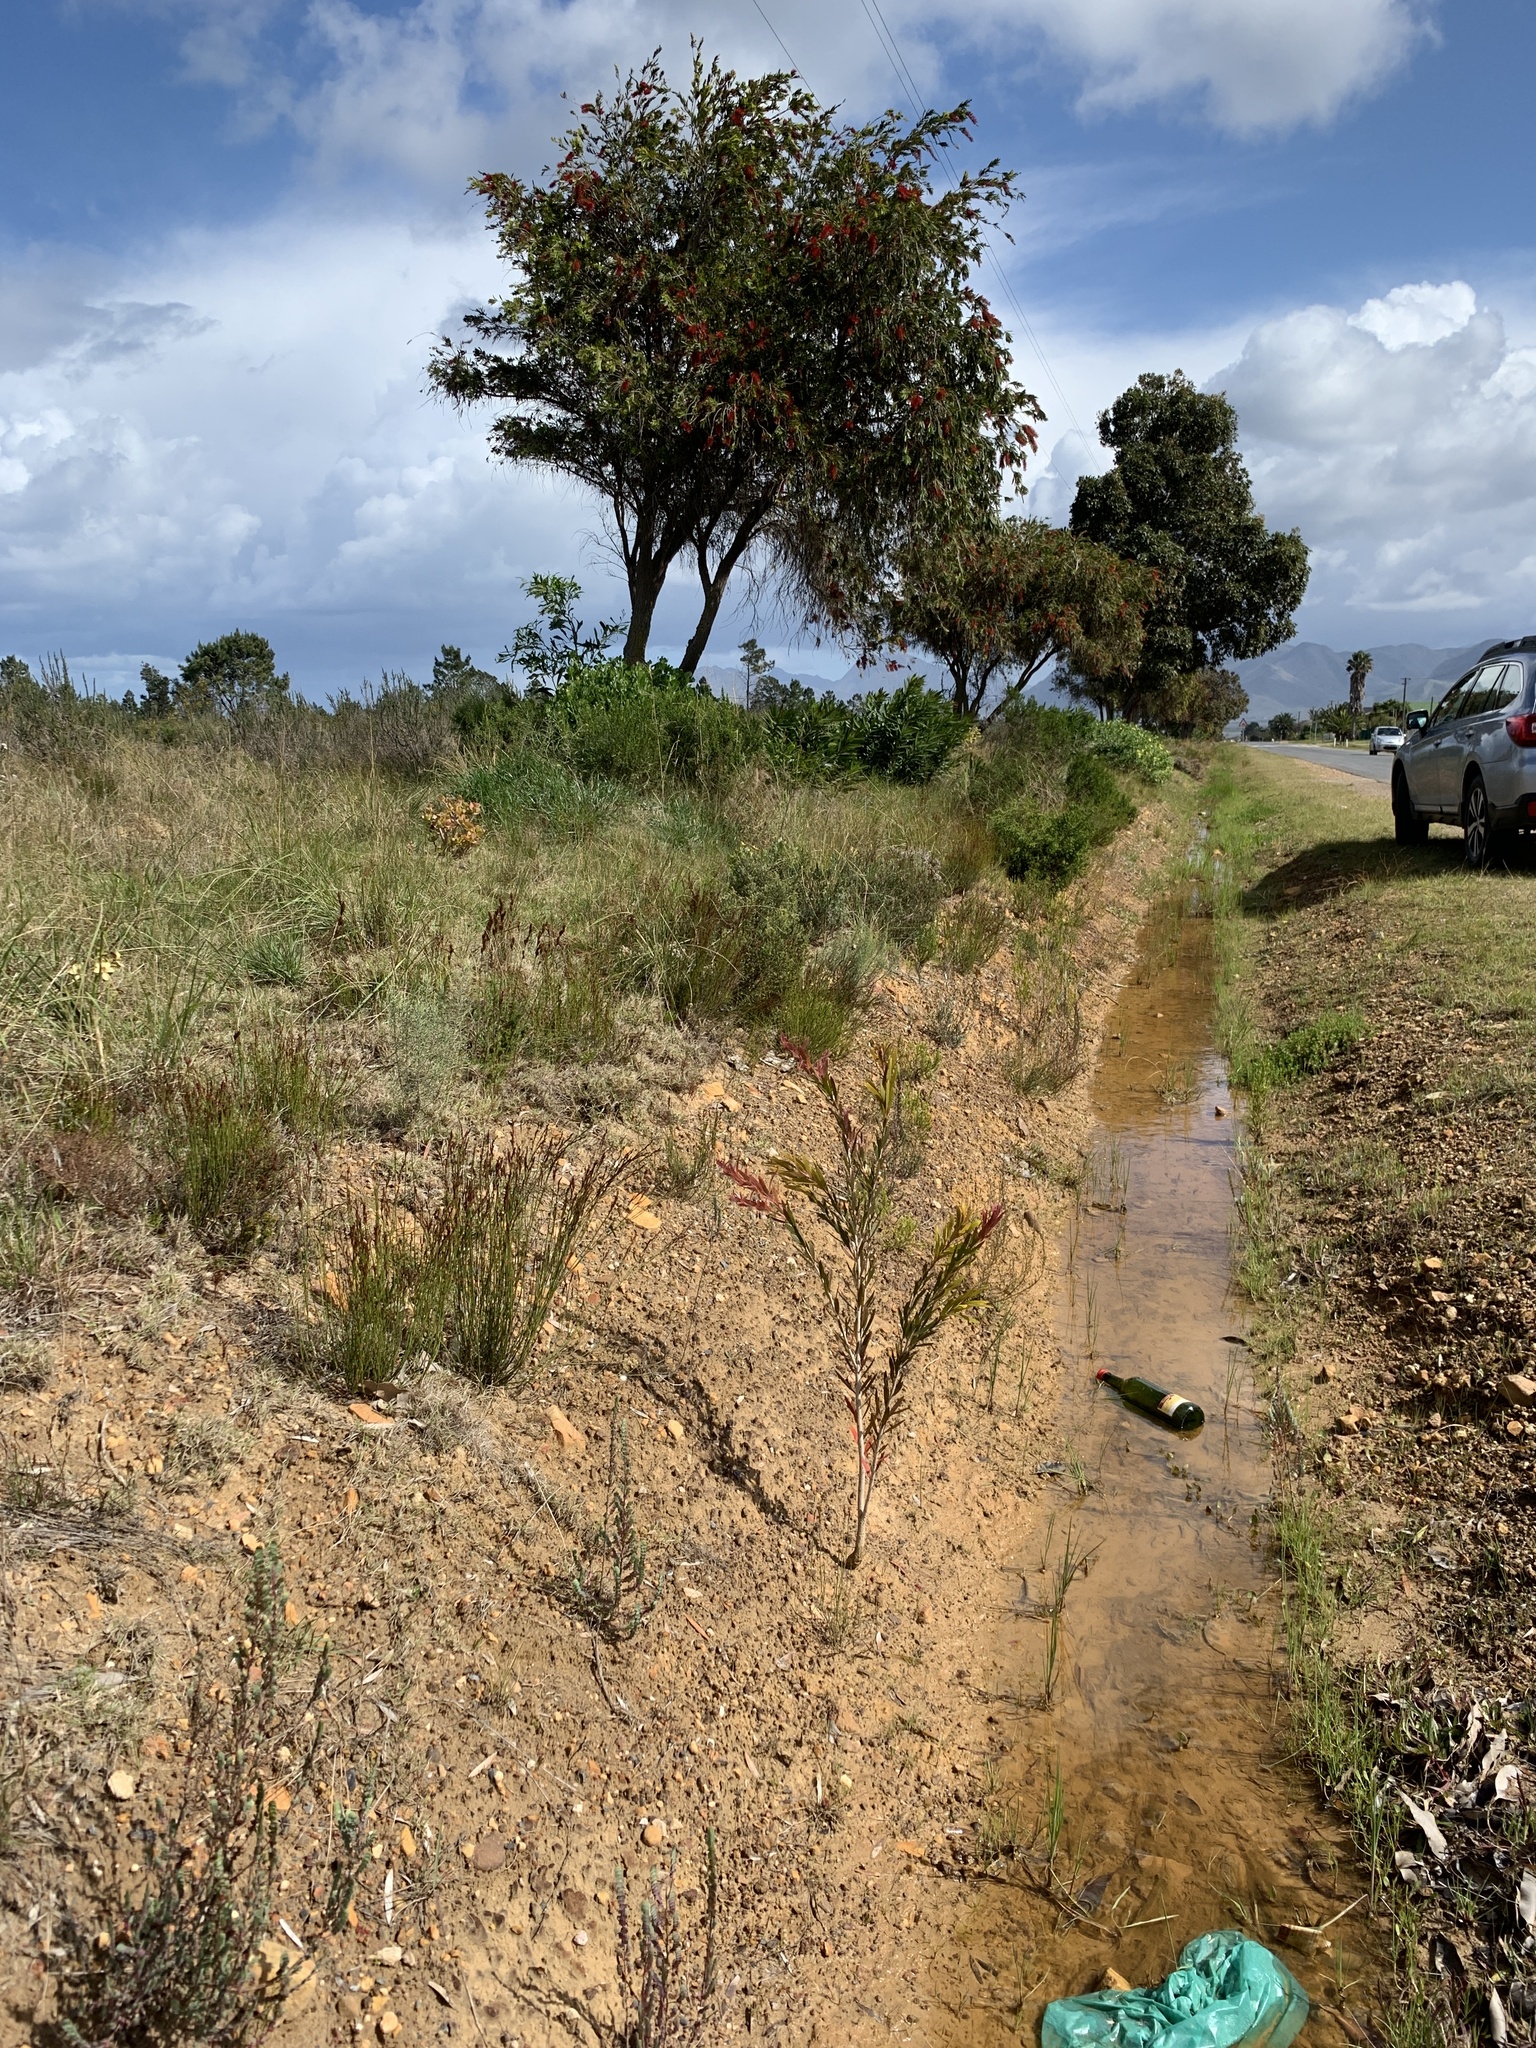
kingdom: Plantae
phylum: Tracheophyta
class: Magnoliopsida
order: Myrtales
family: Myrtaceae
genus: Callistemon
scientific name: Callistemon viminalis
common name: Drooping bottlebrush
